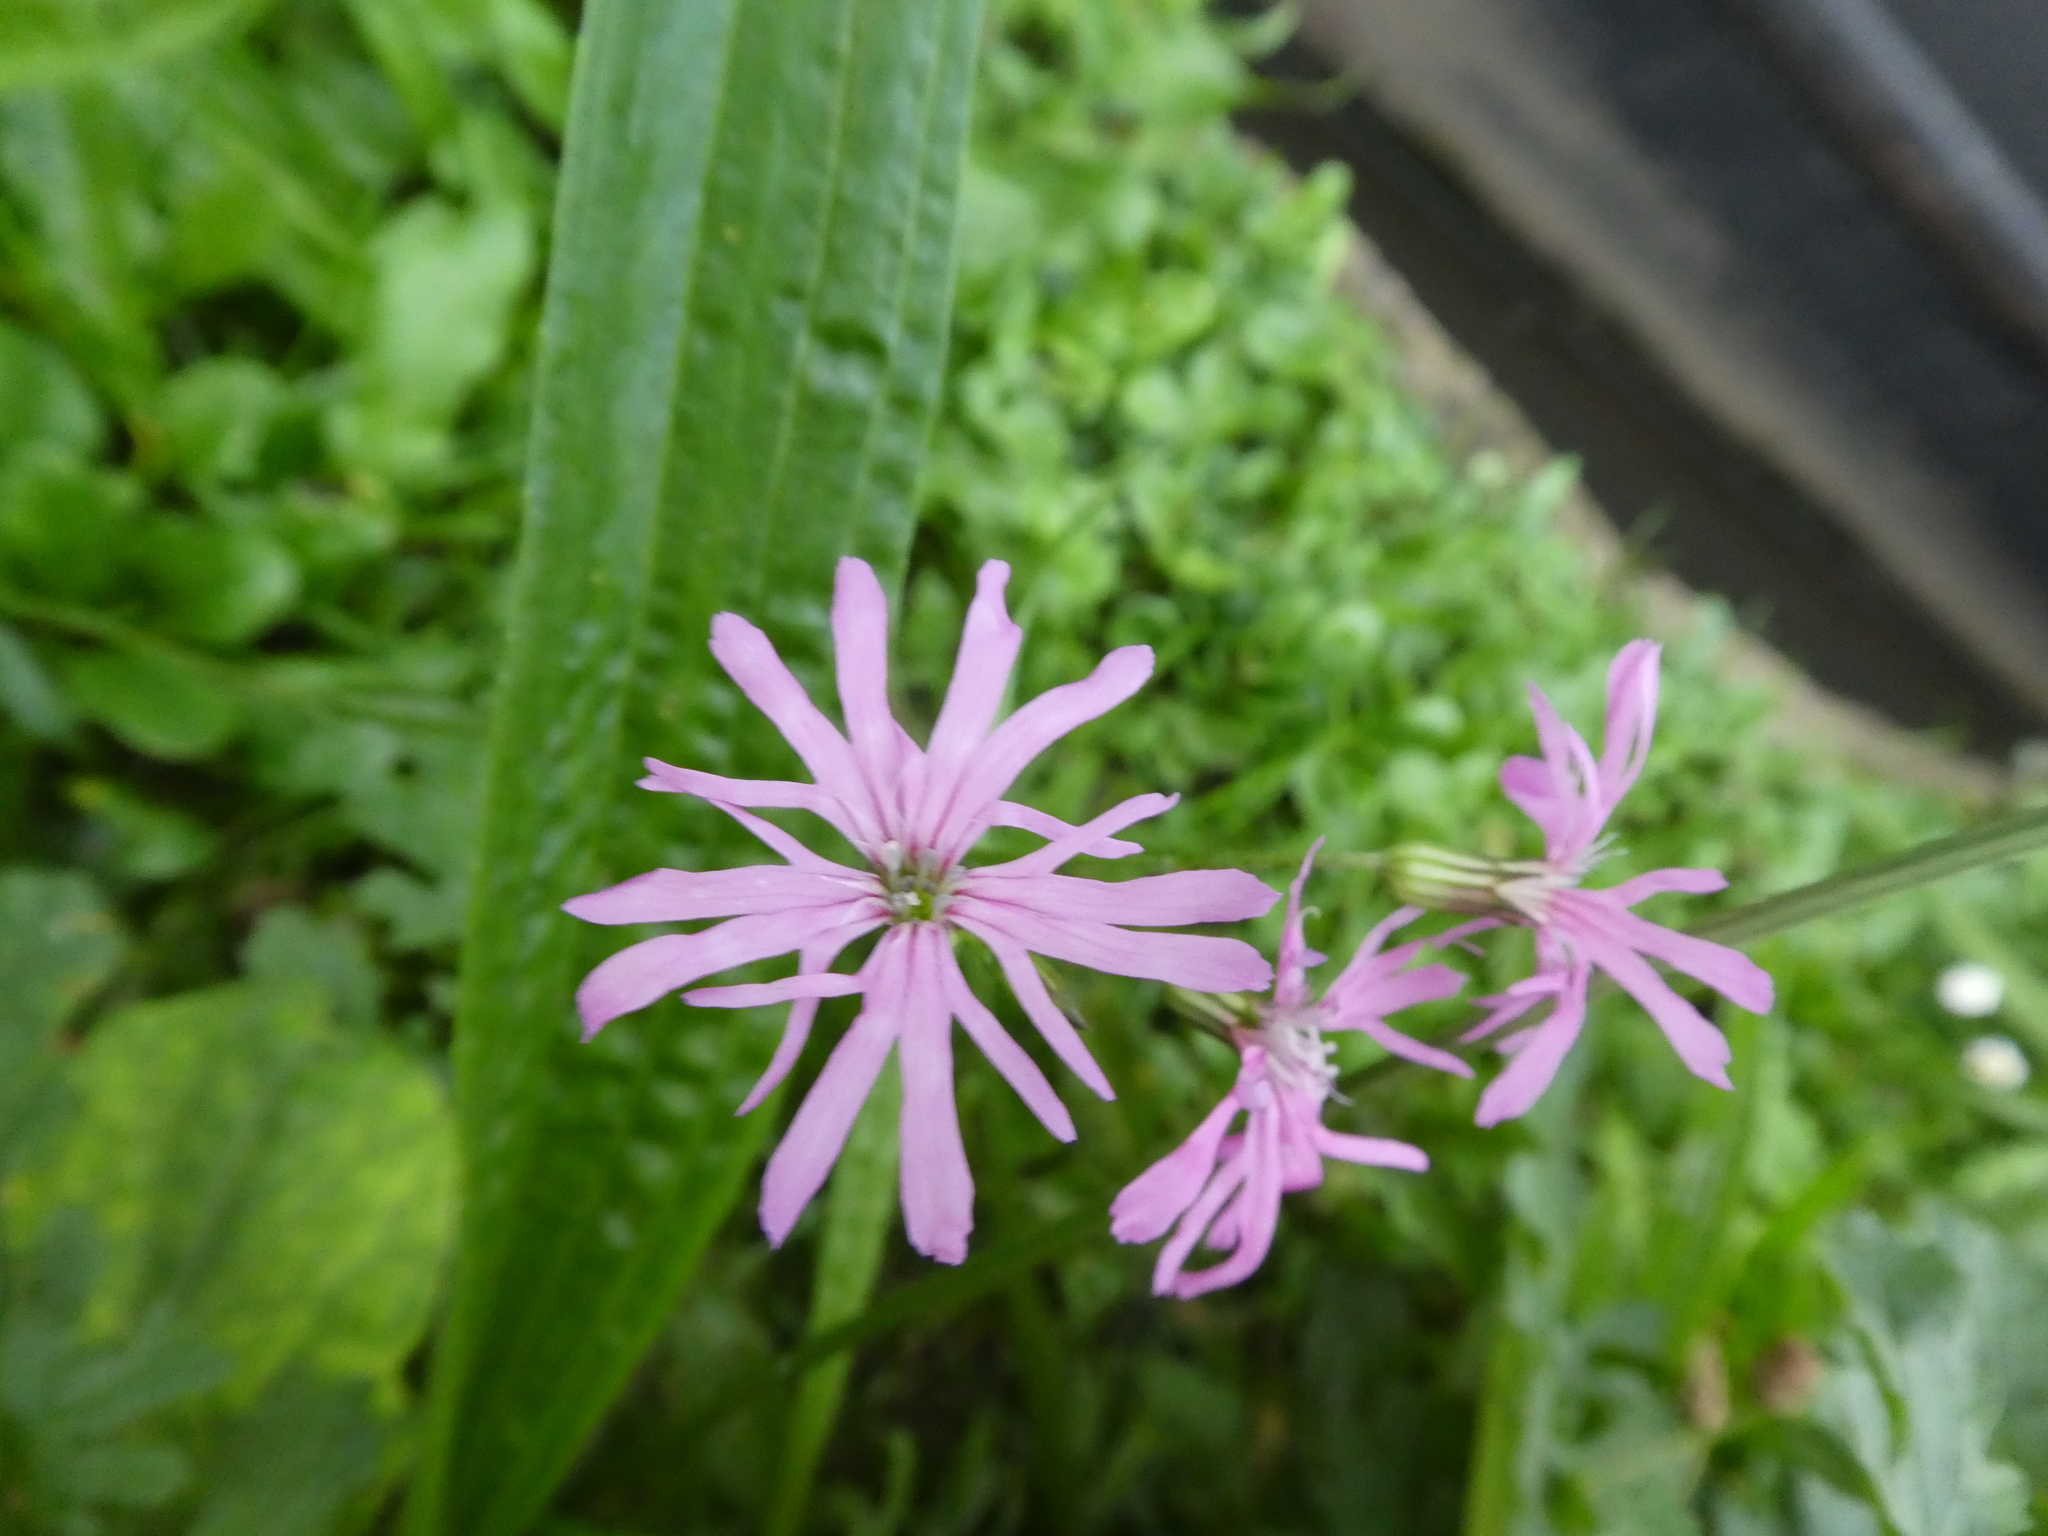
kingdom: Plantae
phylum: Tracheophyta
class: Magnoliopsida
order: Caryophyllales
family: Caryophyllaceae
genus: Silene
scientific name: Silene flos-cuculi
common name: Ragged-robin
